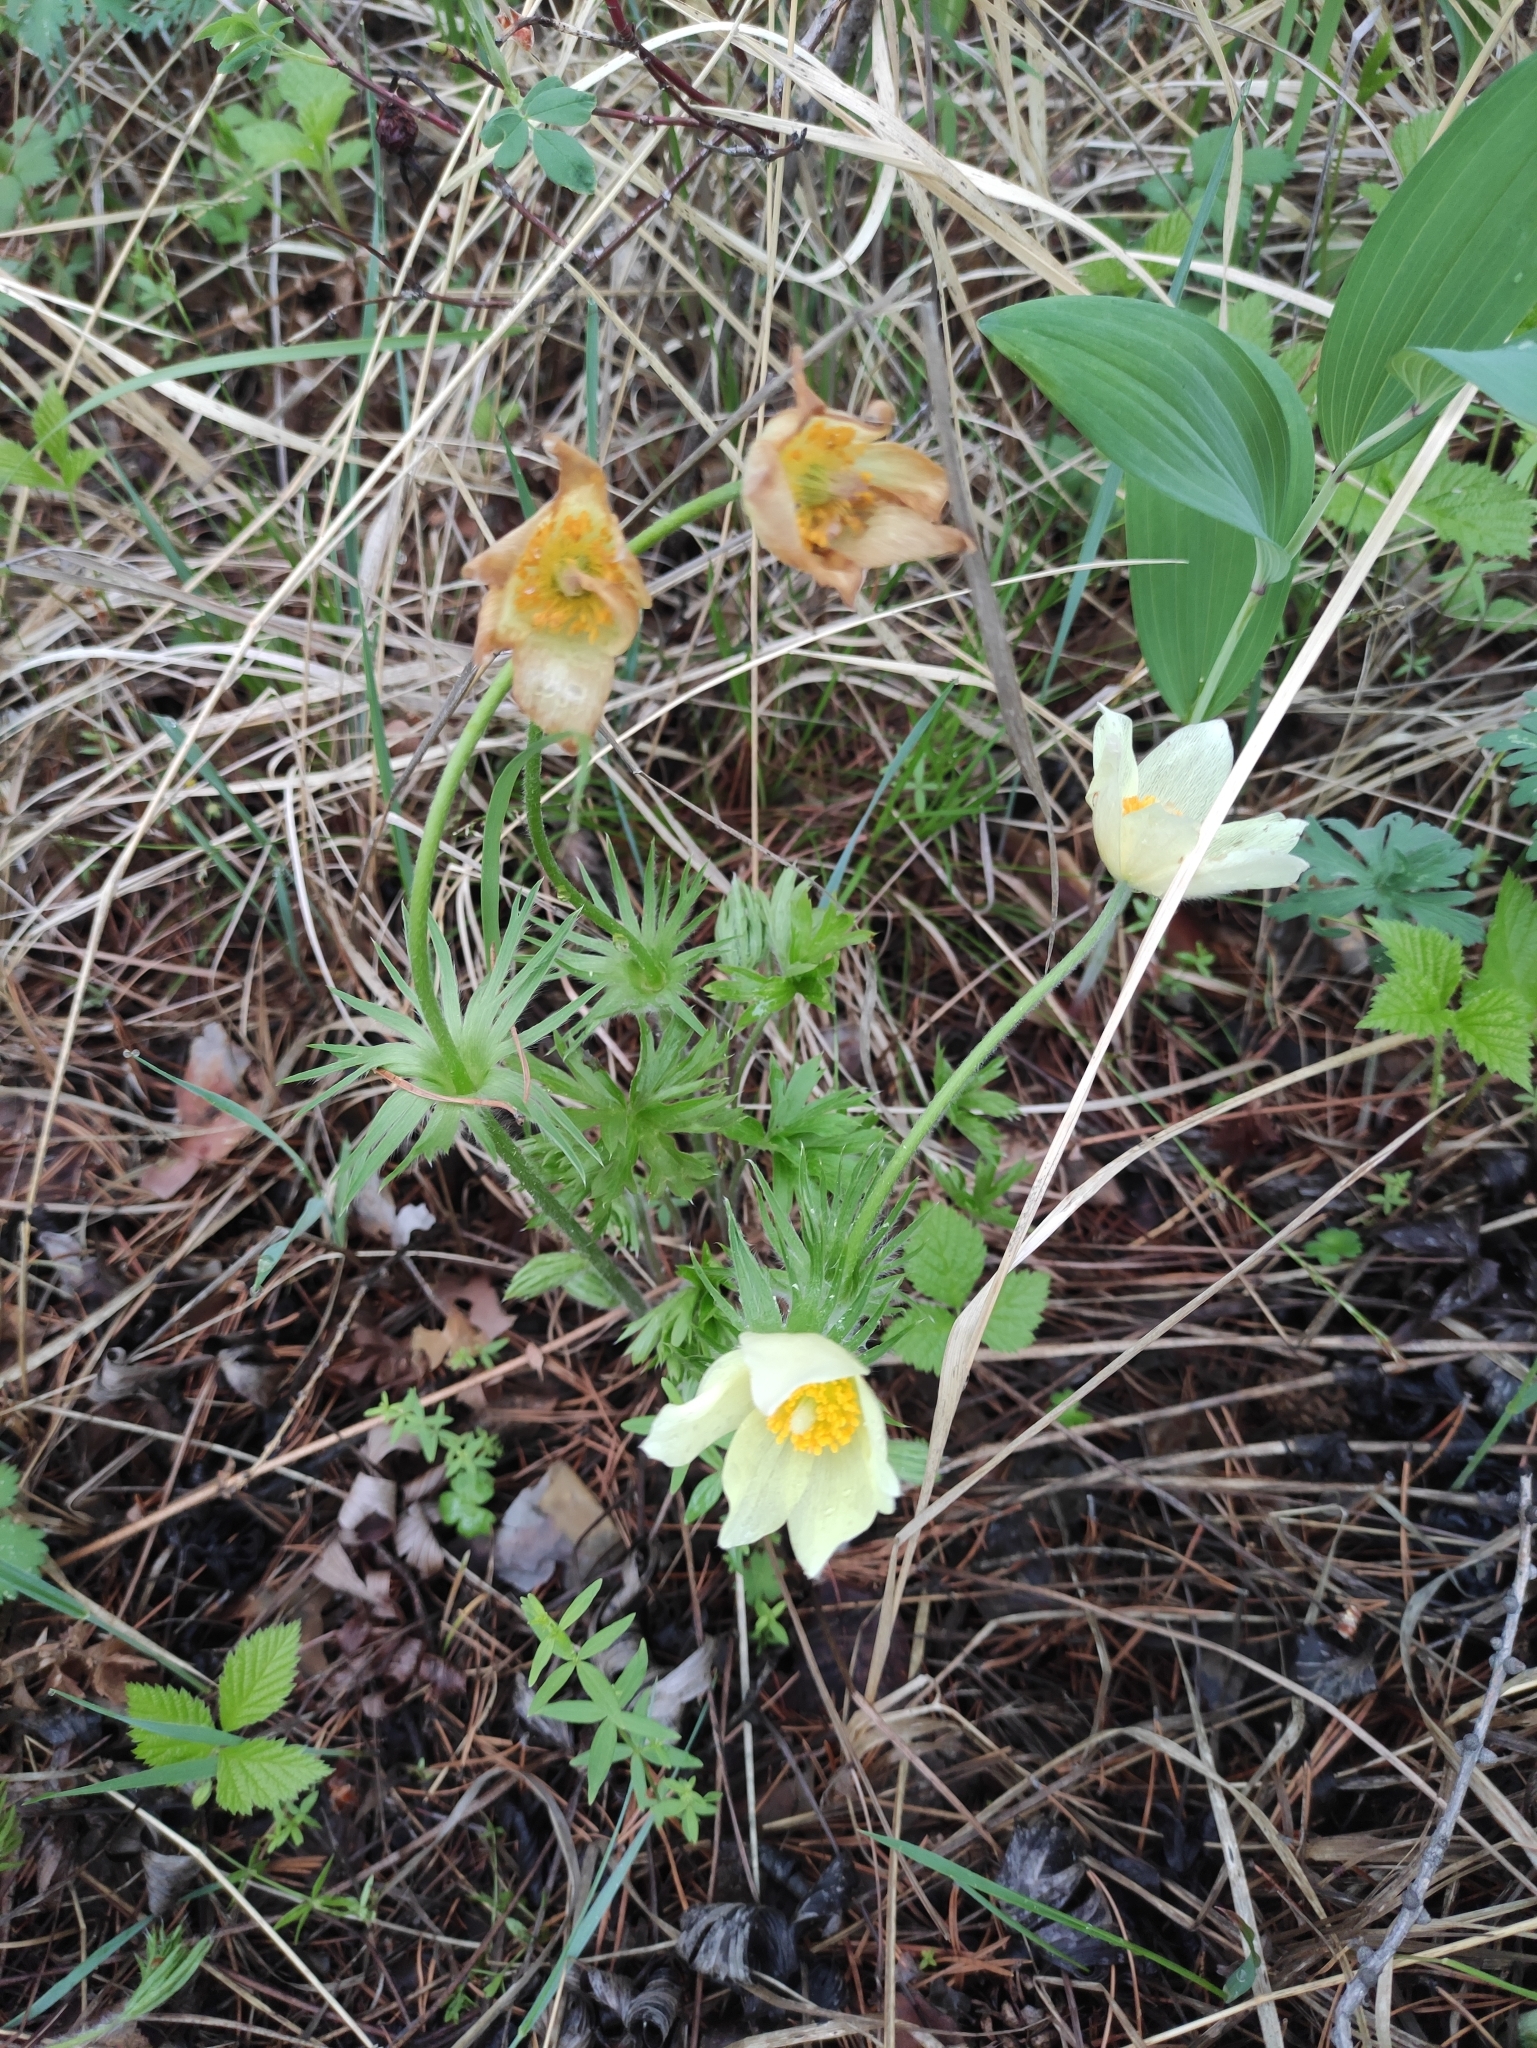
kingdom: Plantae
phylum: Tracheophyta
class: Magnoliopsida
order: Ranunculales
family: Ranunculaceae
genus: Pulsatilla
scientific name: Pulsatilla patens
